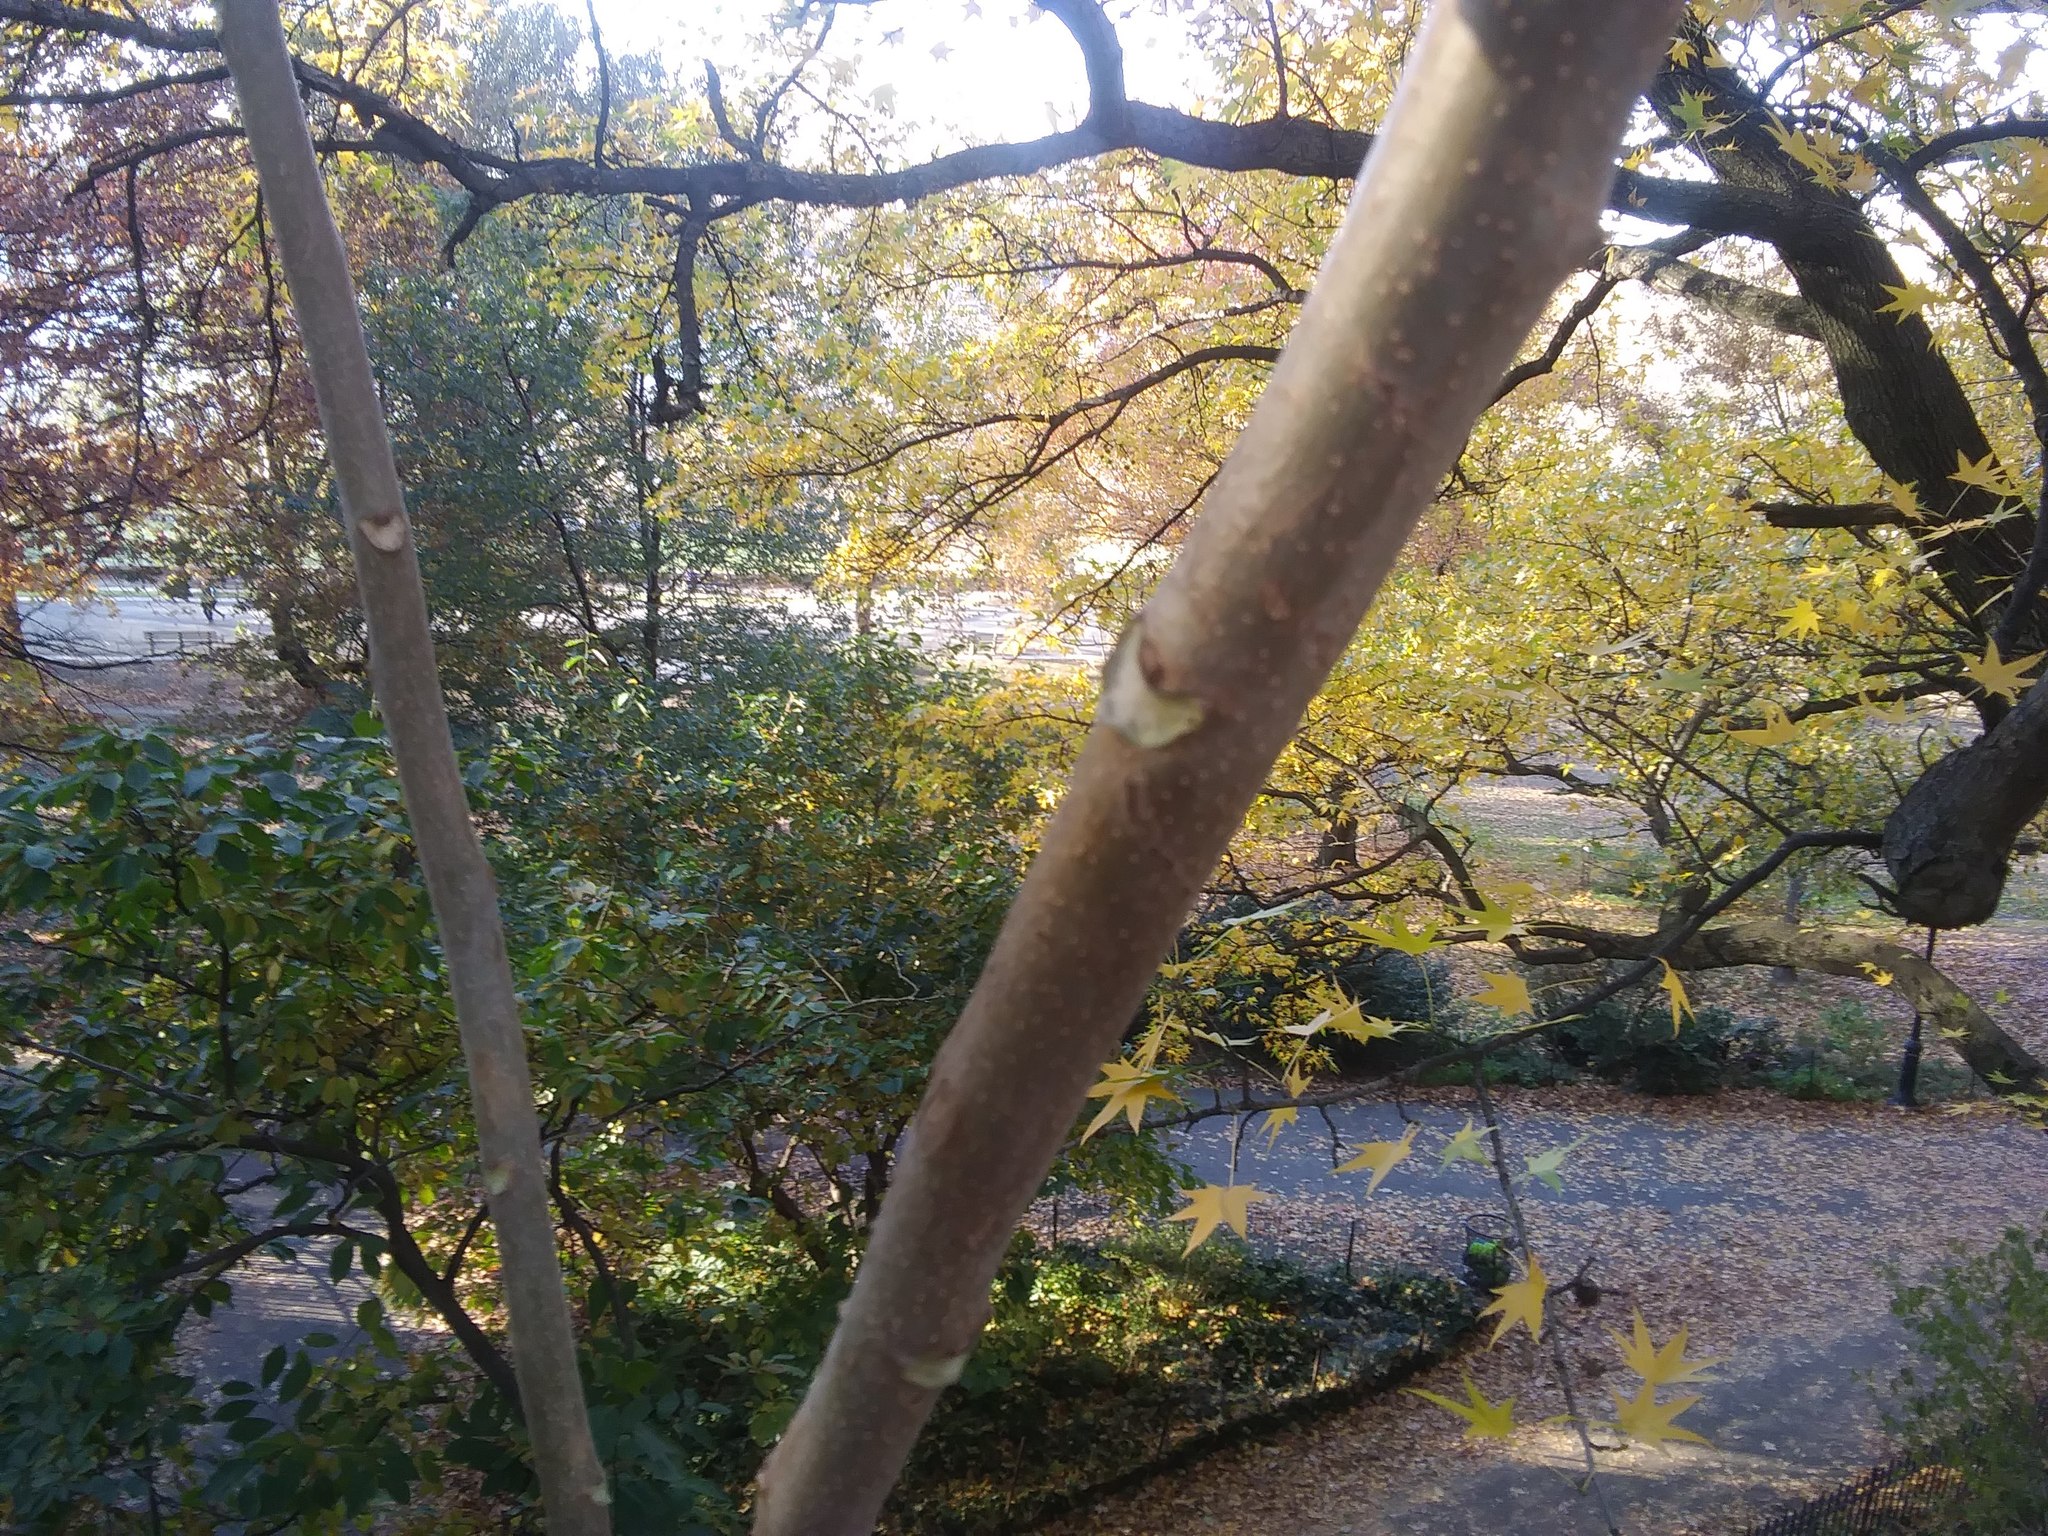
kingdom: Plantae
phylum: Tracheophyta
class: Magnoliopsida
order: Sapindales
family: Simaroubaceae
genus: Ailanthus
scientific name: Ailanthus altissima
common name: Tree-of-heaven
